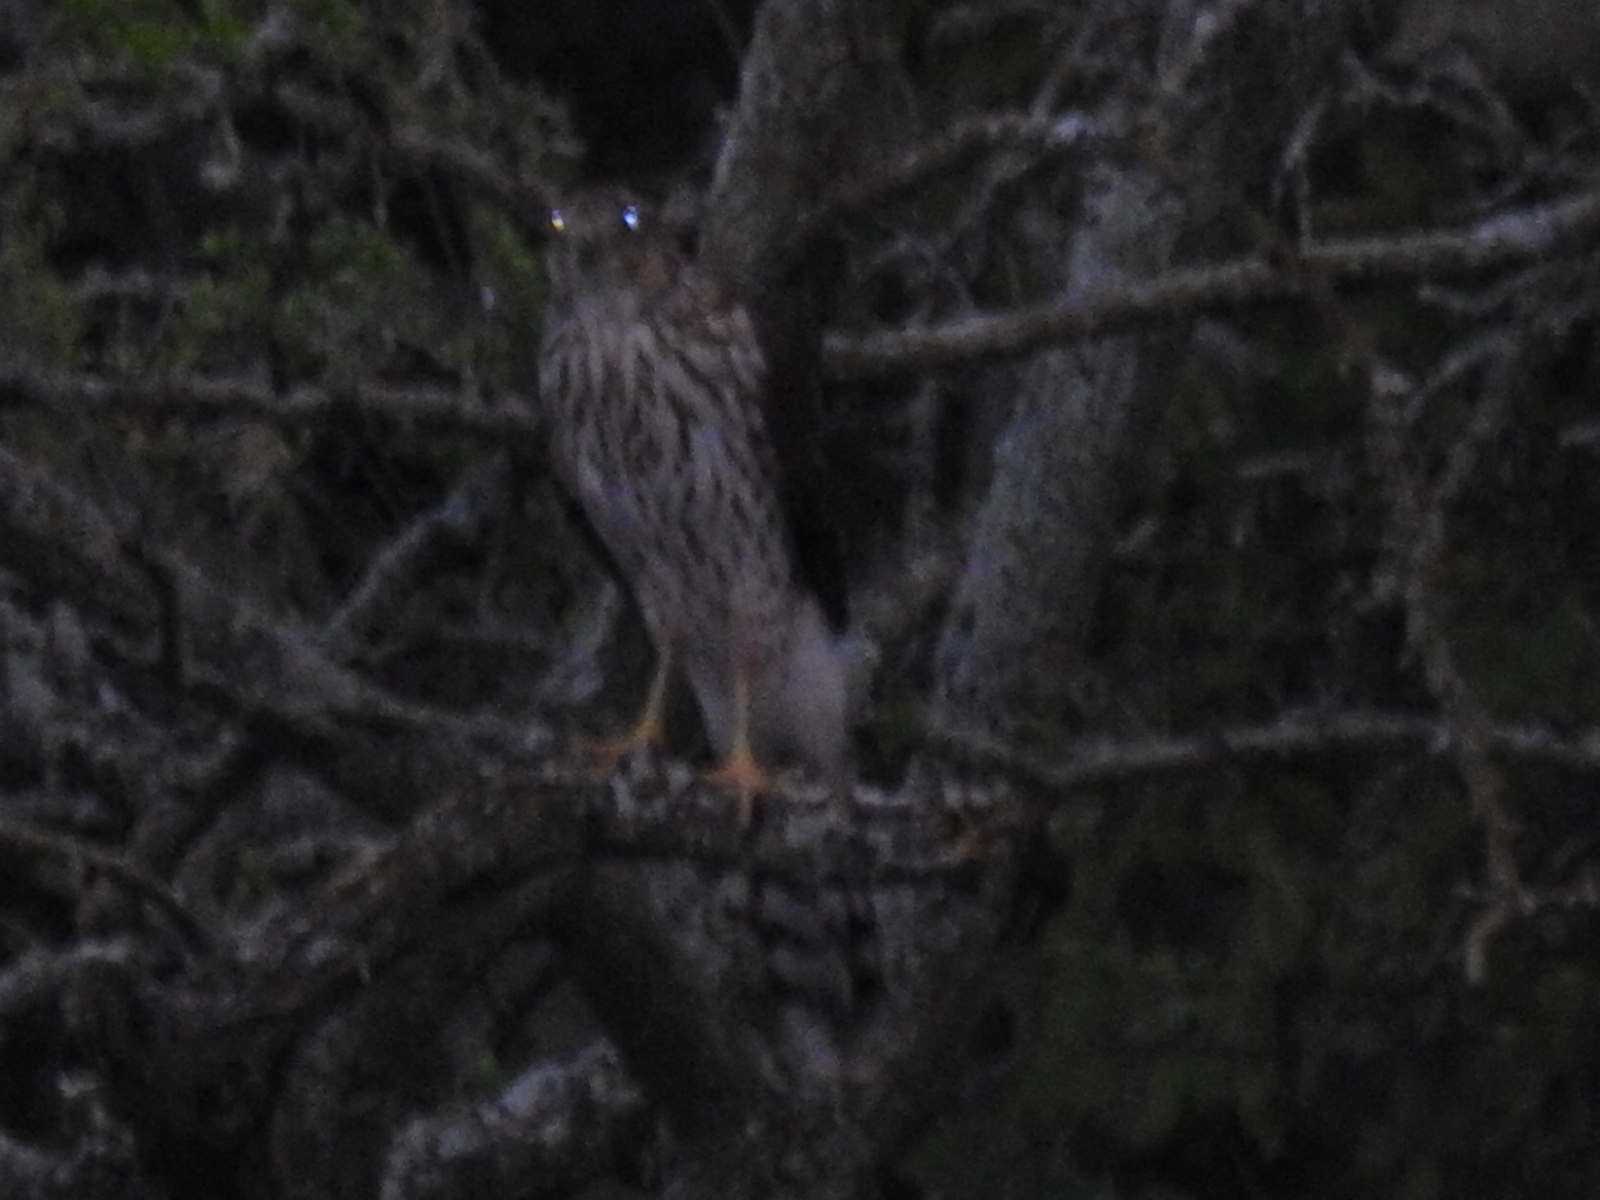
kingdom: Animalia
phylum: Chordata
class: Aves
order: Accipitriformes
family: Accipitridae
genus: Accipiter
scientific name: Accipiter cooperii
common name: Cooper's hawk
